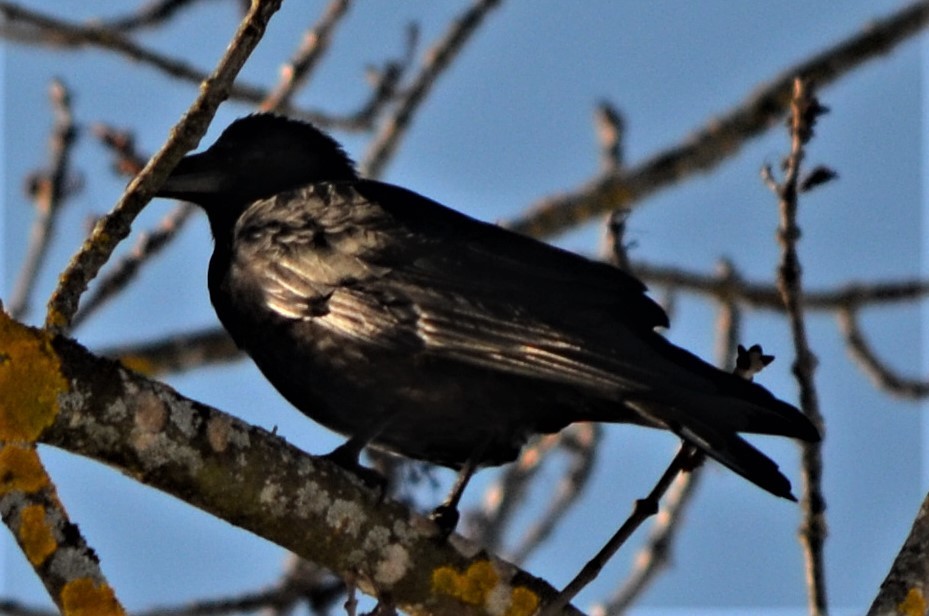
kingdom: Animalia
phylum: Chordata
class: Aves
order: Passeriformes
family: Corvidae
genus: Corvus
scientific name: Corvus corone
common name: Carrion crow
